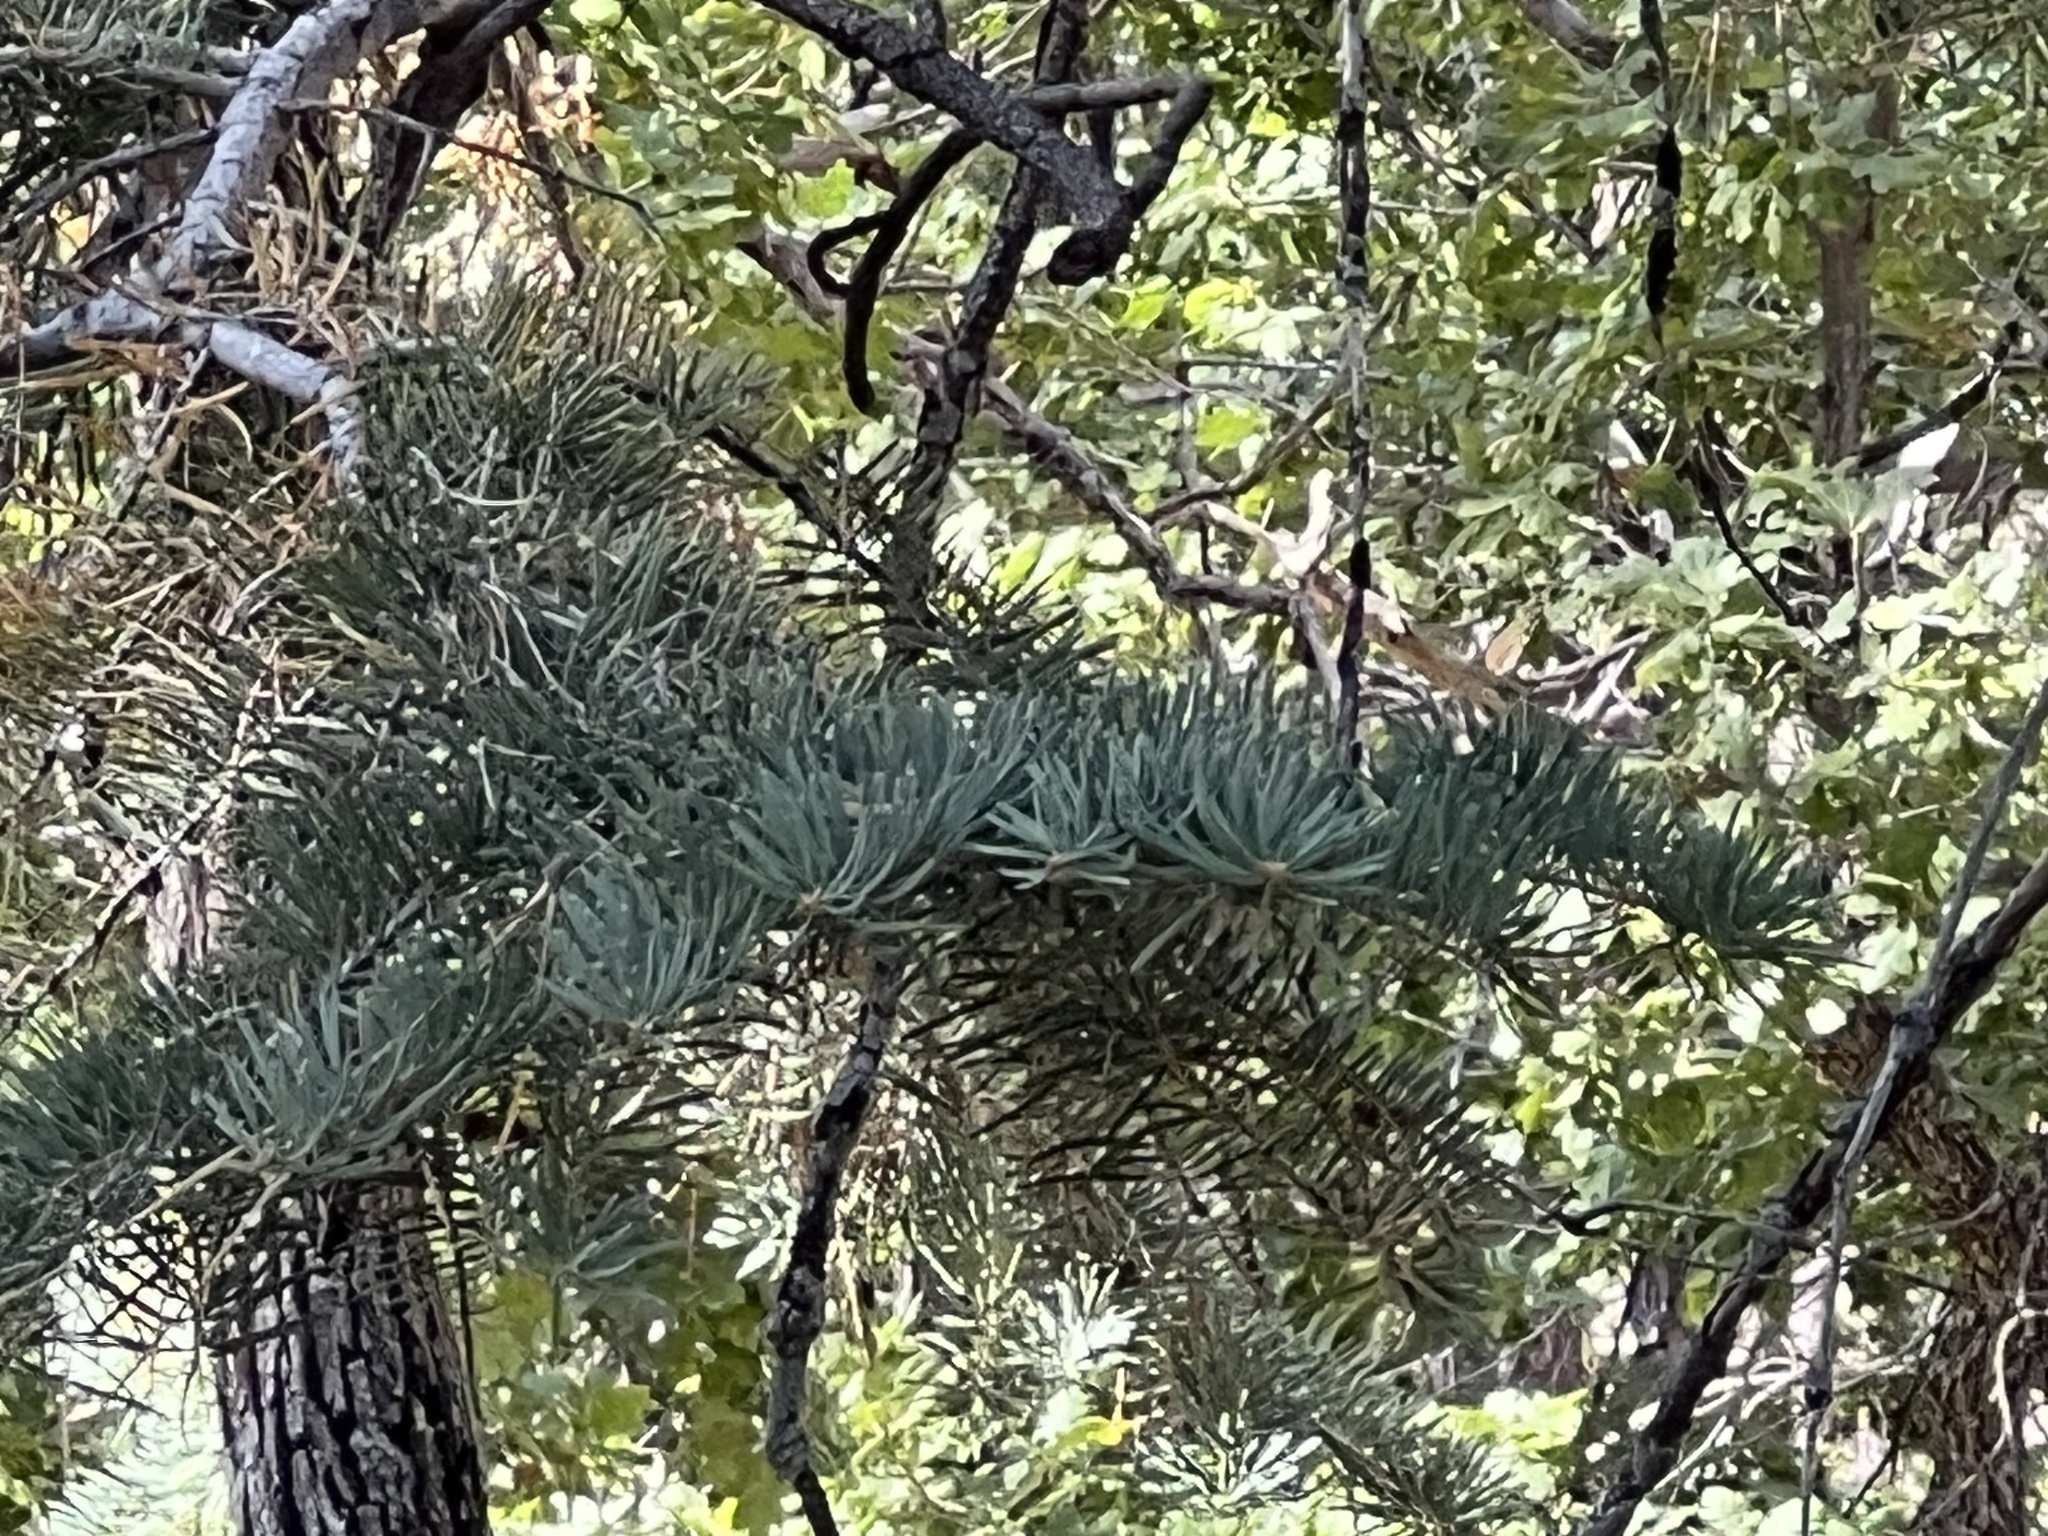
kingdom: Plantae
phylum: Tracheophyta
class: Pinopsida
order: Pinales
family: Pinaceae
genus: Abies
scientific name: Abies concolor
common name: Colorado fir
